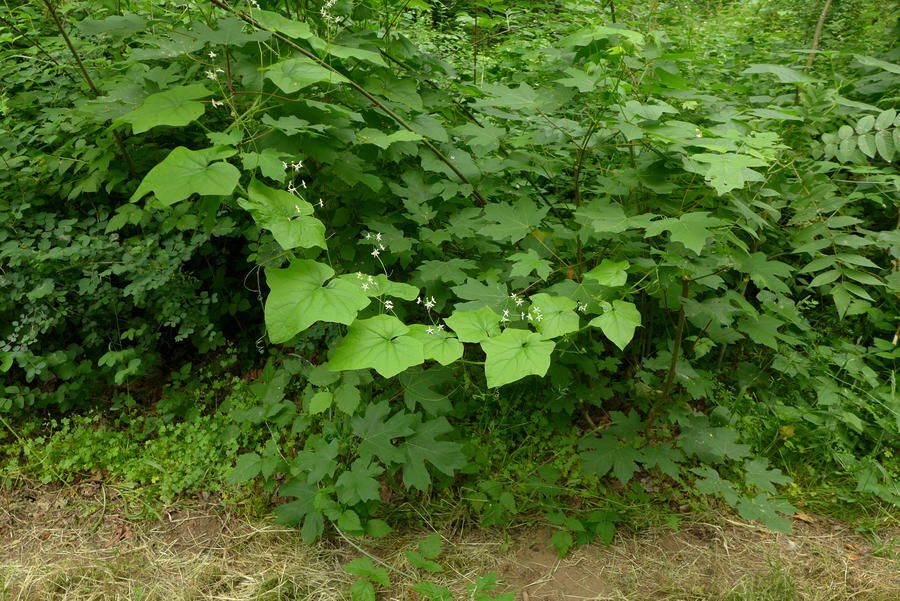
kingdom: Plantae
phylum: Tracheophyta
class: Magnoliopsida
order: Cucurbitales
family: Cucurbitaceae
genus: Marah
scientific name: Marah oregana
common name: Coastal manroot
